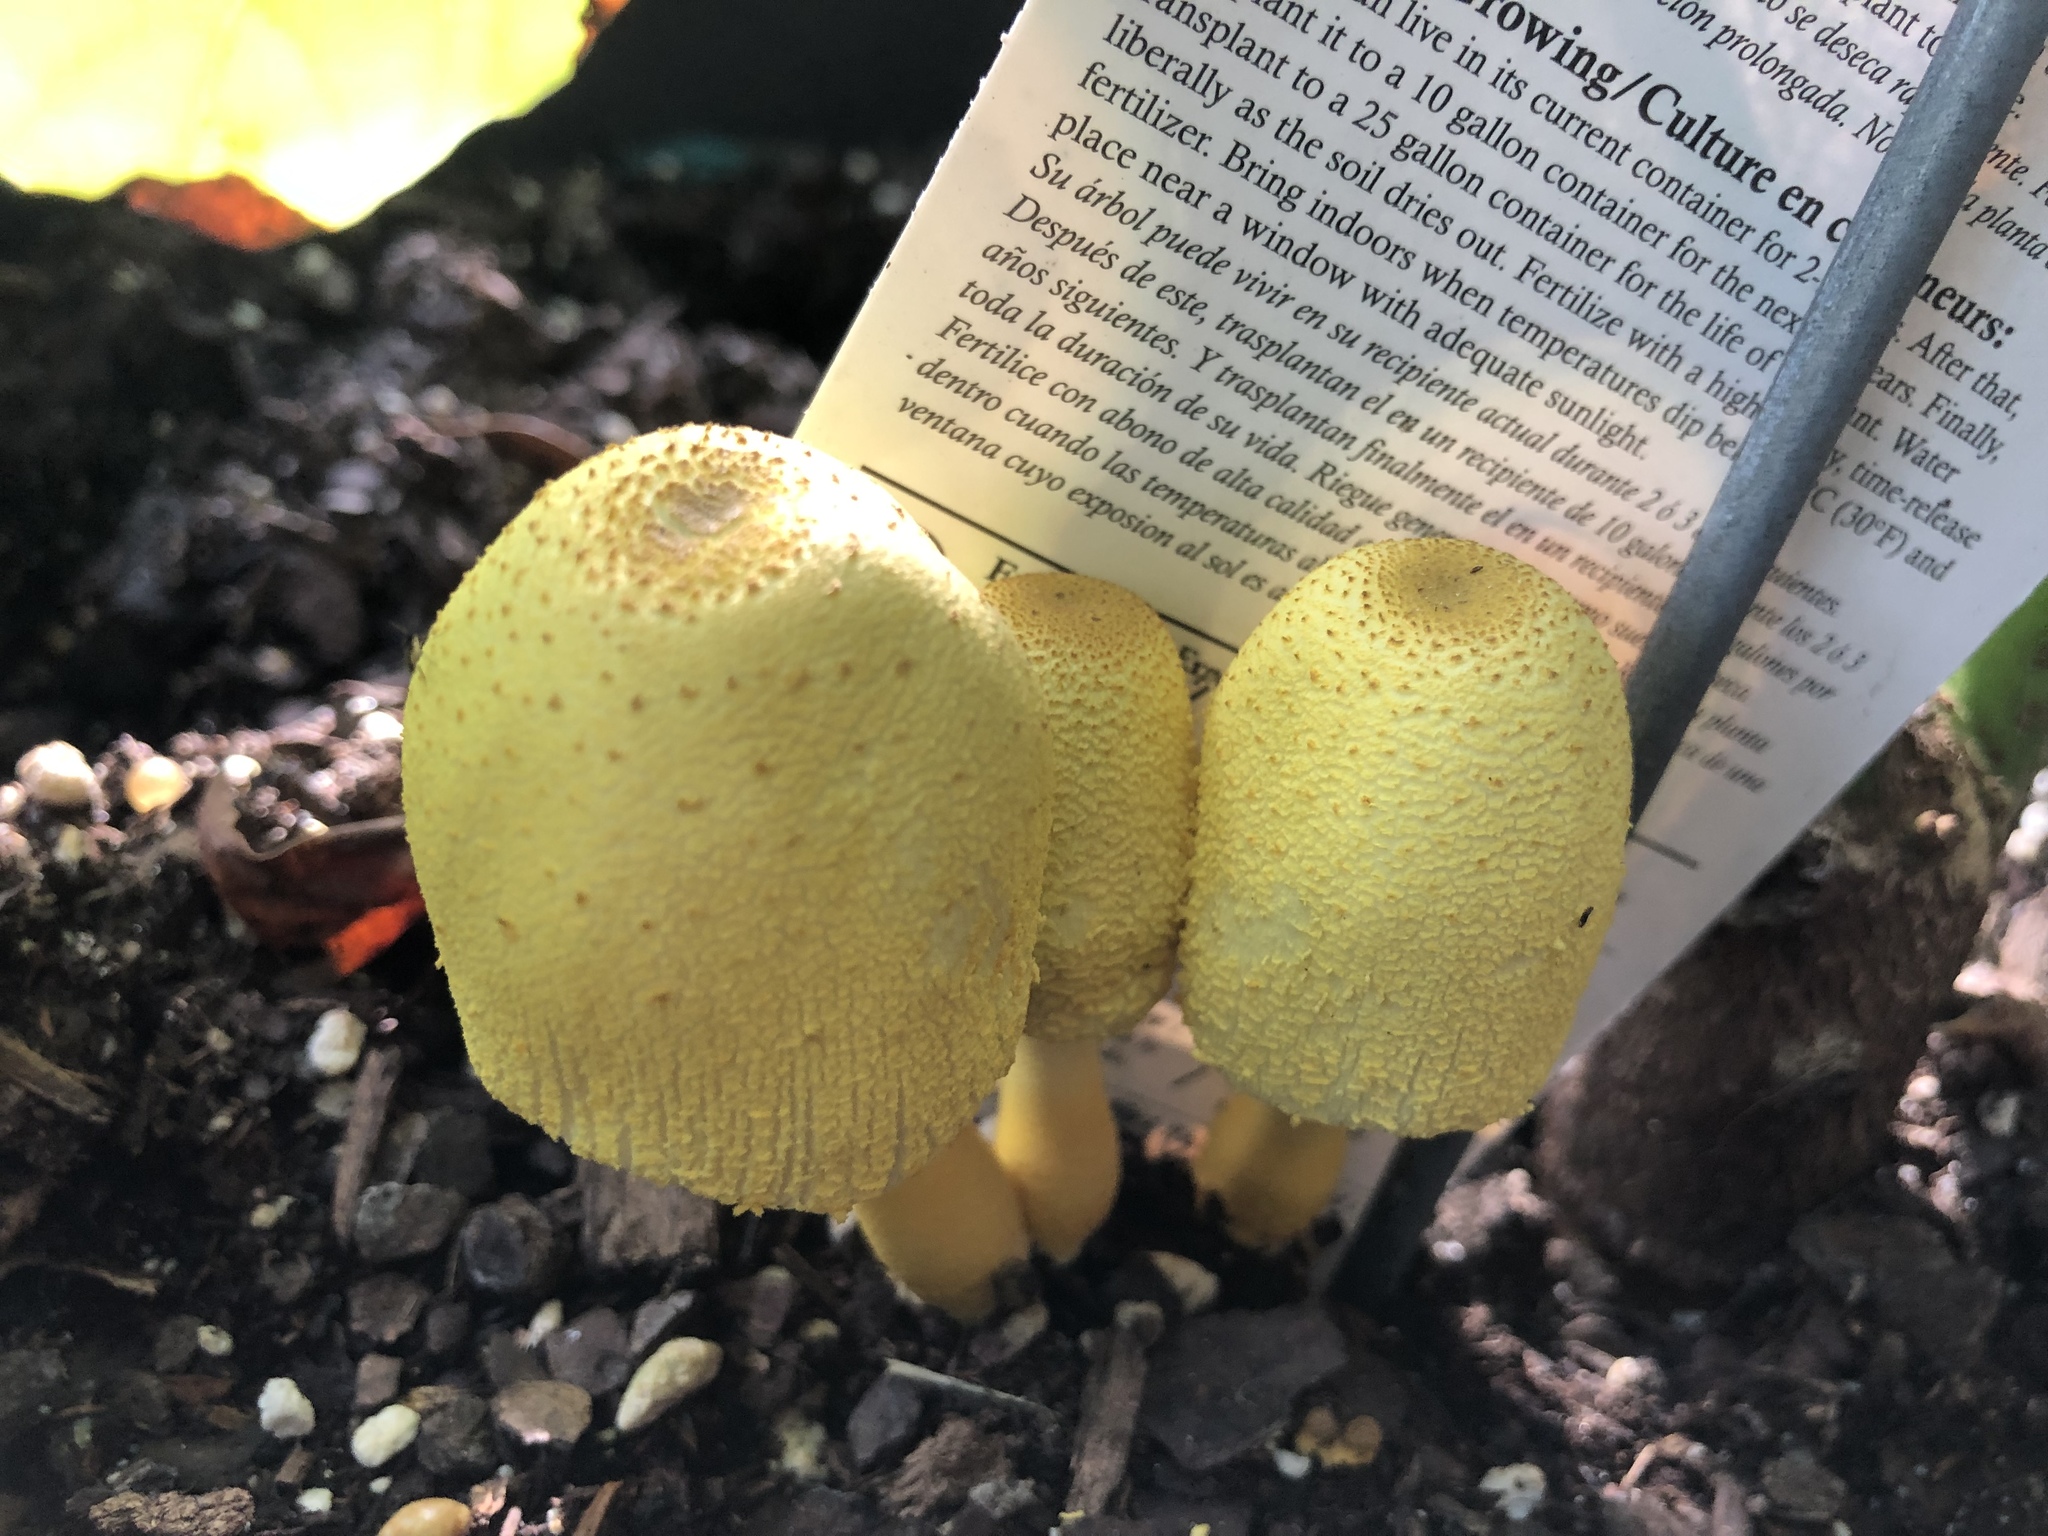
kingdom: Fungi
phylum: Basidiomycota
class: Agaricomycetes
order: Agaricales
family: Agaricaceae
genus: Leucocoprinus
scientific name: Leucocoprinus birnbaumii
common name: Plantpot dapperling
